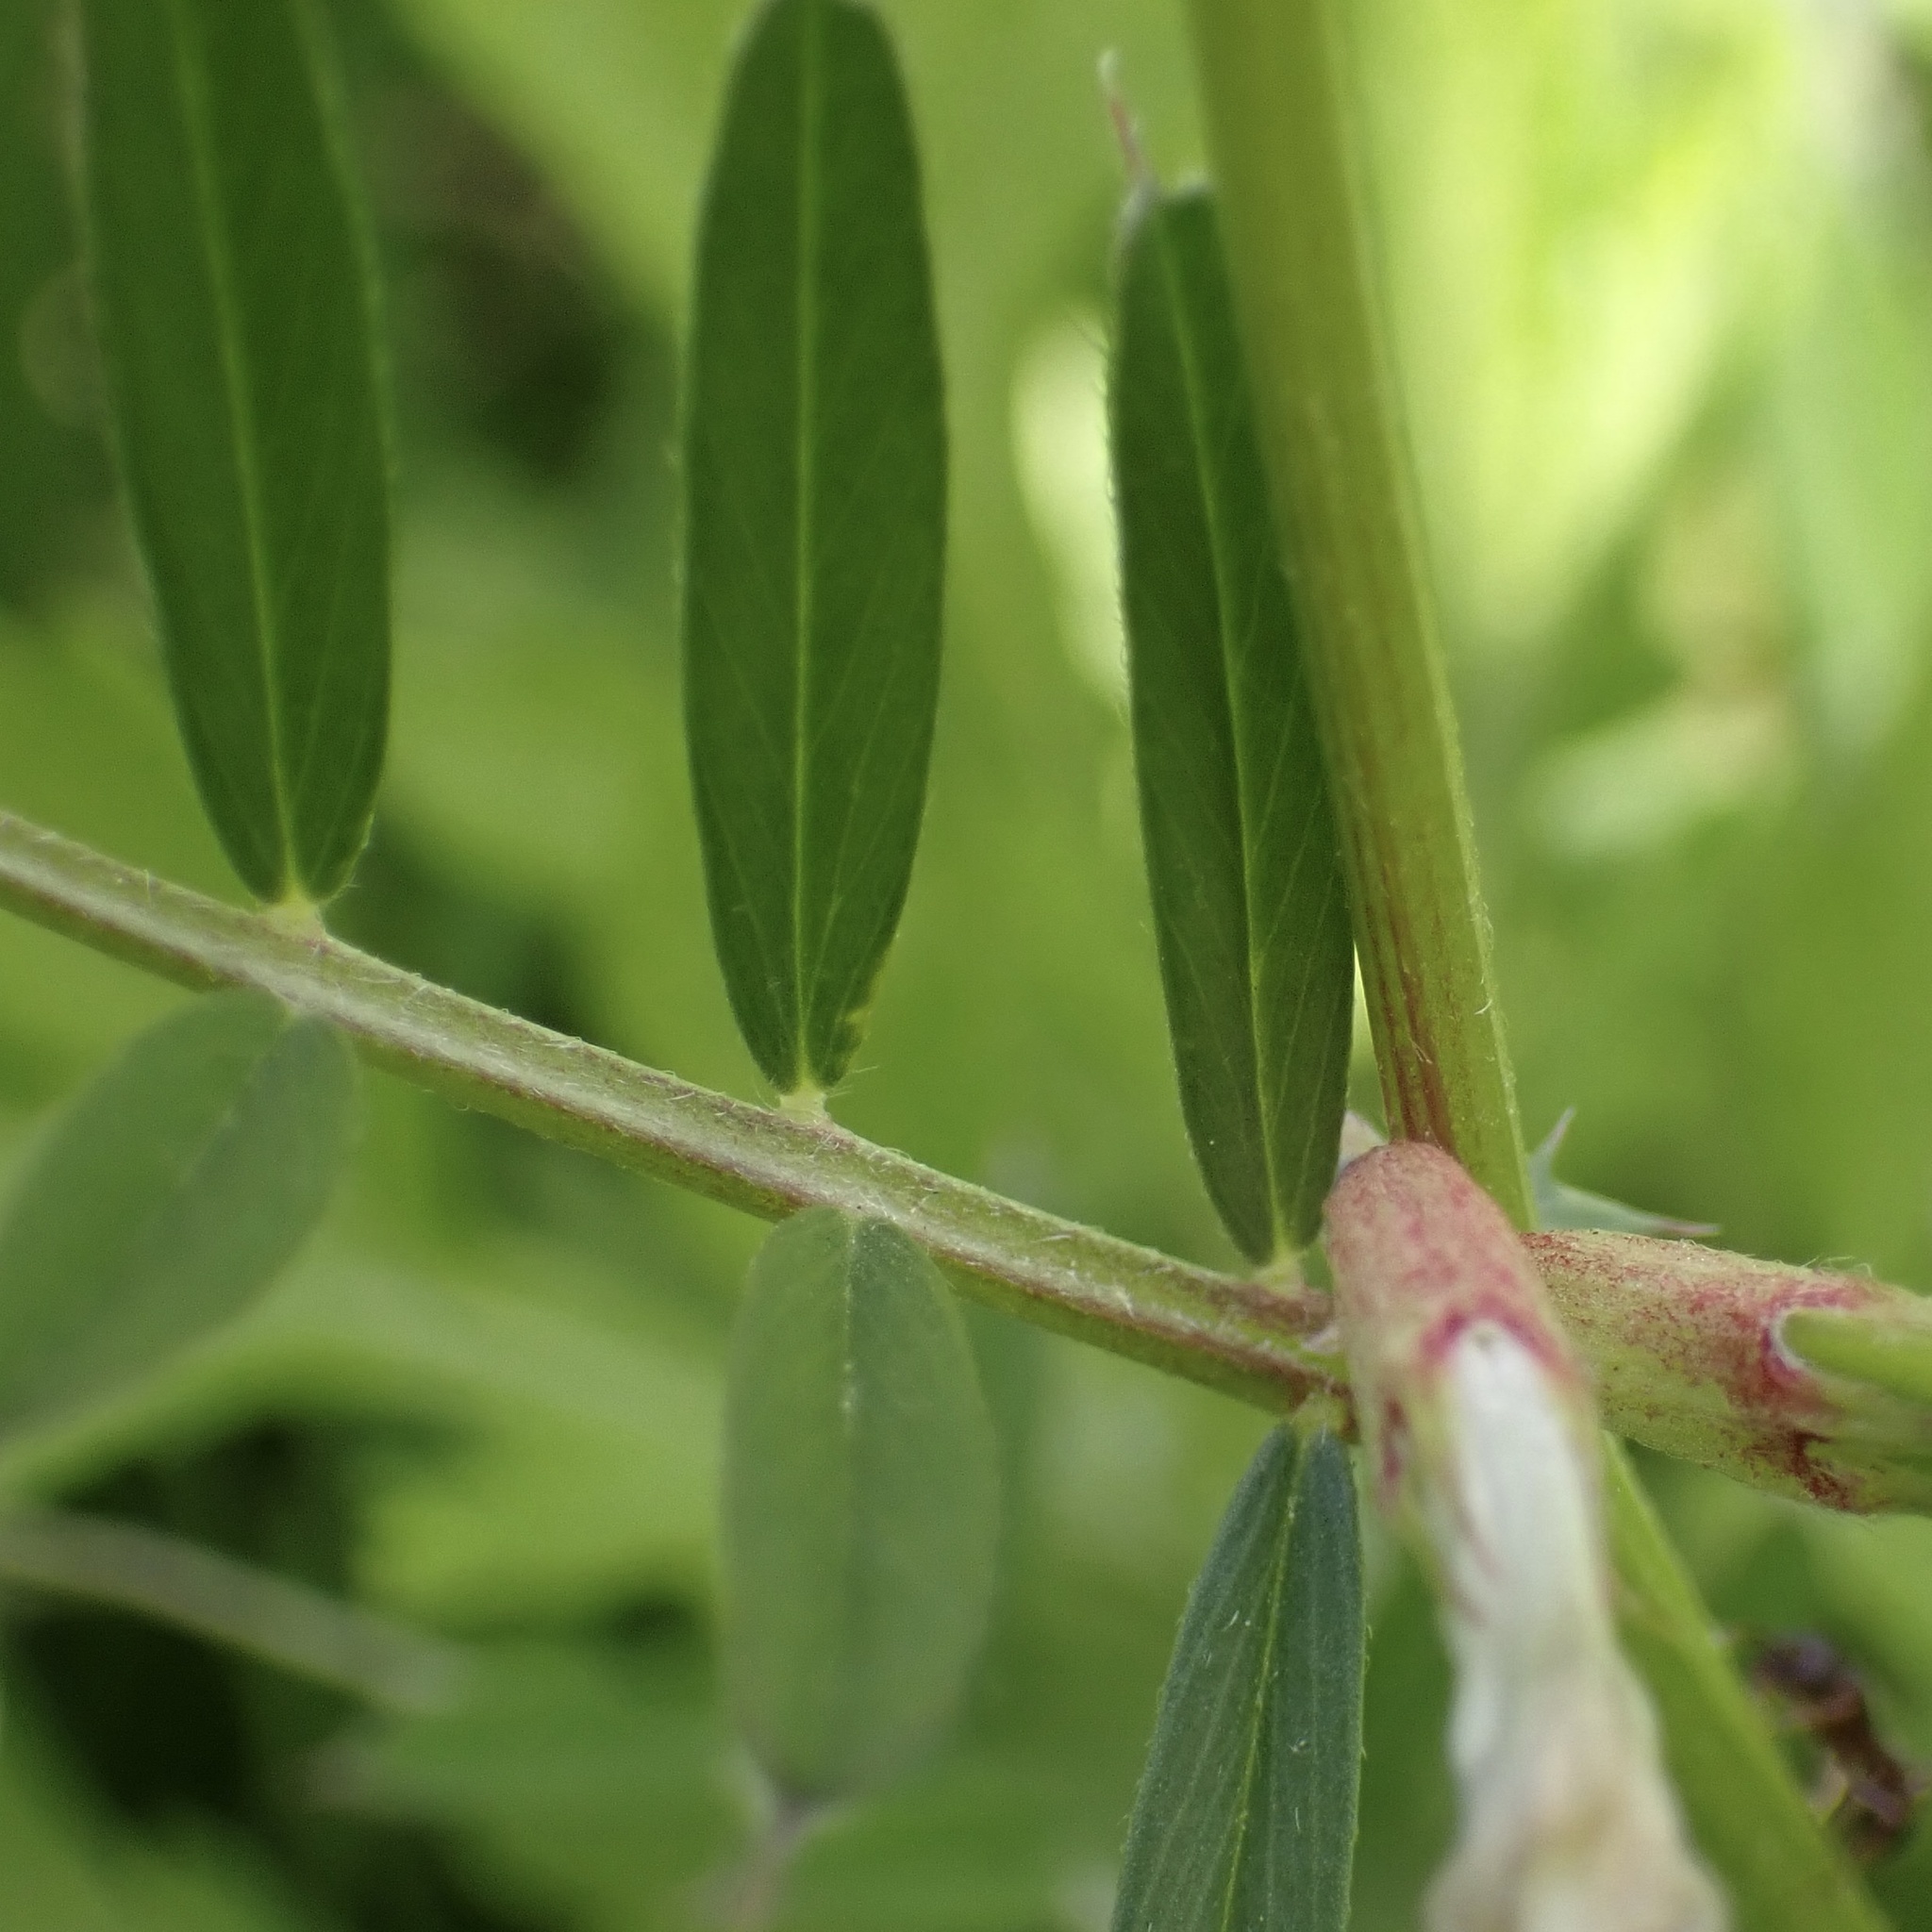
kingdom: Plantae
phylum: Tracheophyta
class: Magnoliopsida
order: Fabales
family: Fabaceae
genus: Vicia
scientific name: Vicia sativa
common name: Garden vetch
